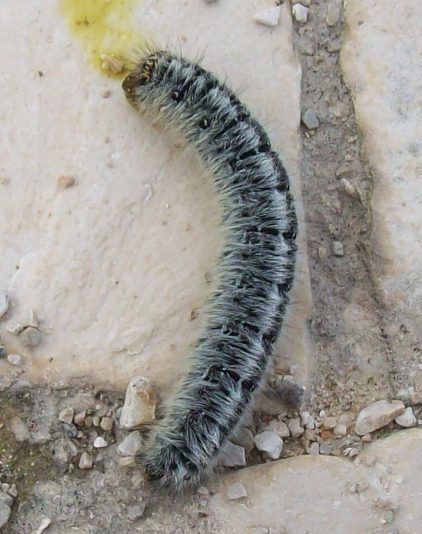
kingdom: Animalia
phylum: Arthropoda
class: Insecta
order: Lepidoptera
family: Lasiocampidae
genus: Lasiocampa
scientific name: Lasiocampa trifolii
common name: Grass eggar
